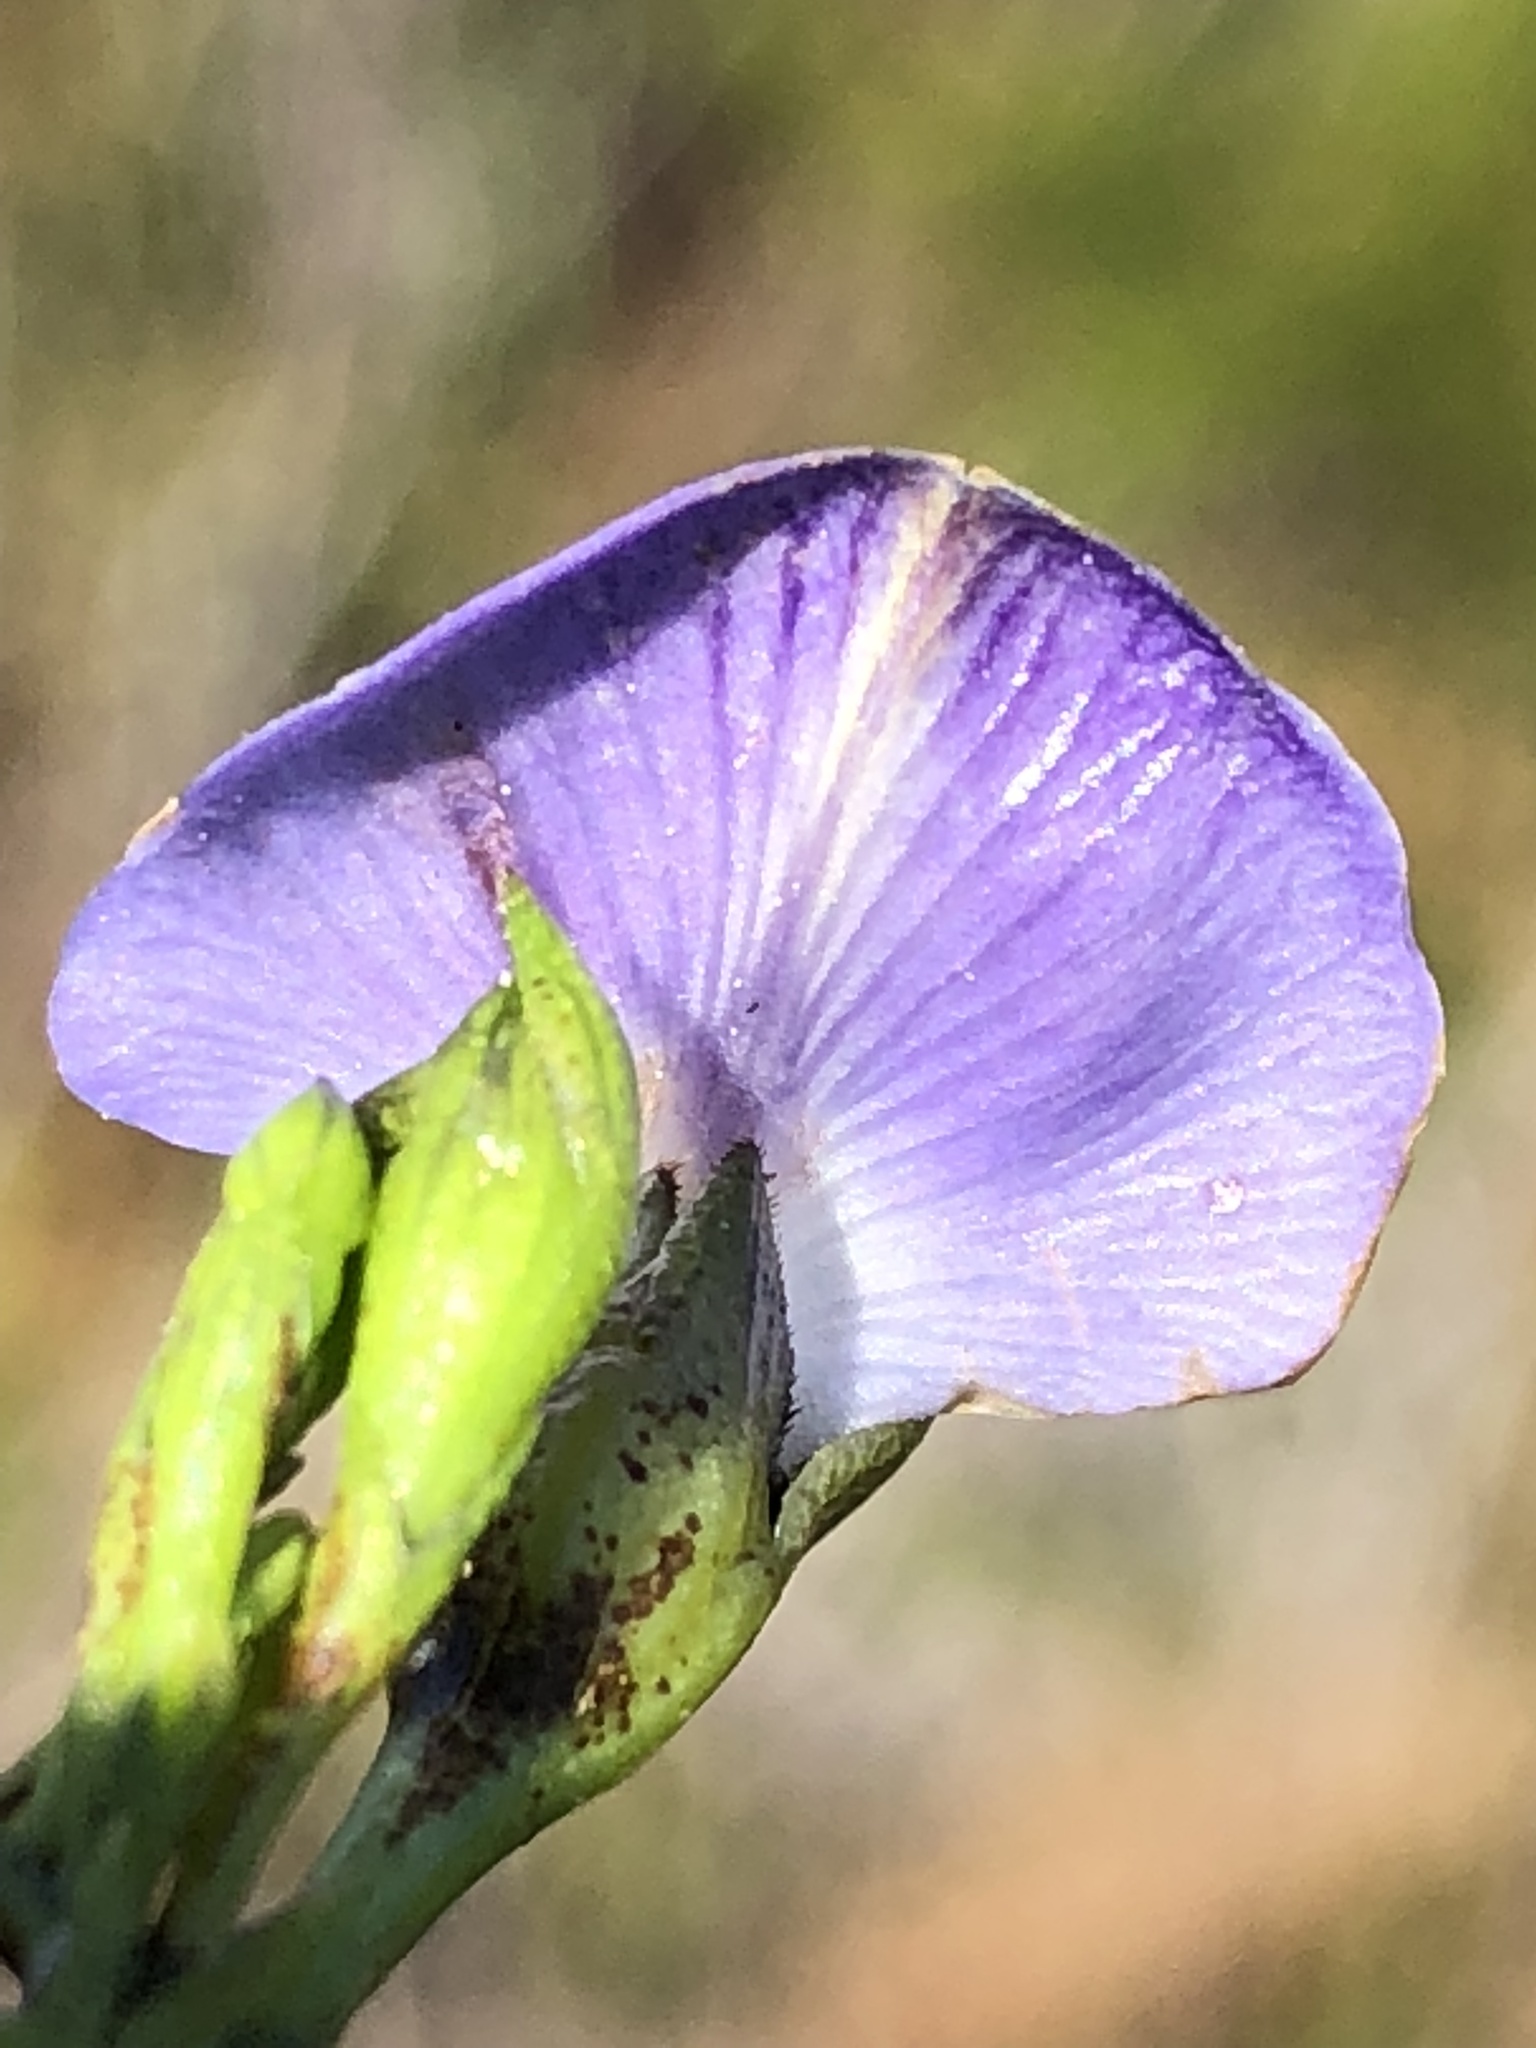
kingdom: Plantae
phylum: Tracheophyta
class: Magnoliopsida
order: Fabales
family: Fabaceae
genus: Psoralea
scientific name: Psoralea speciosa
